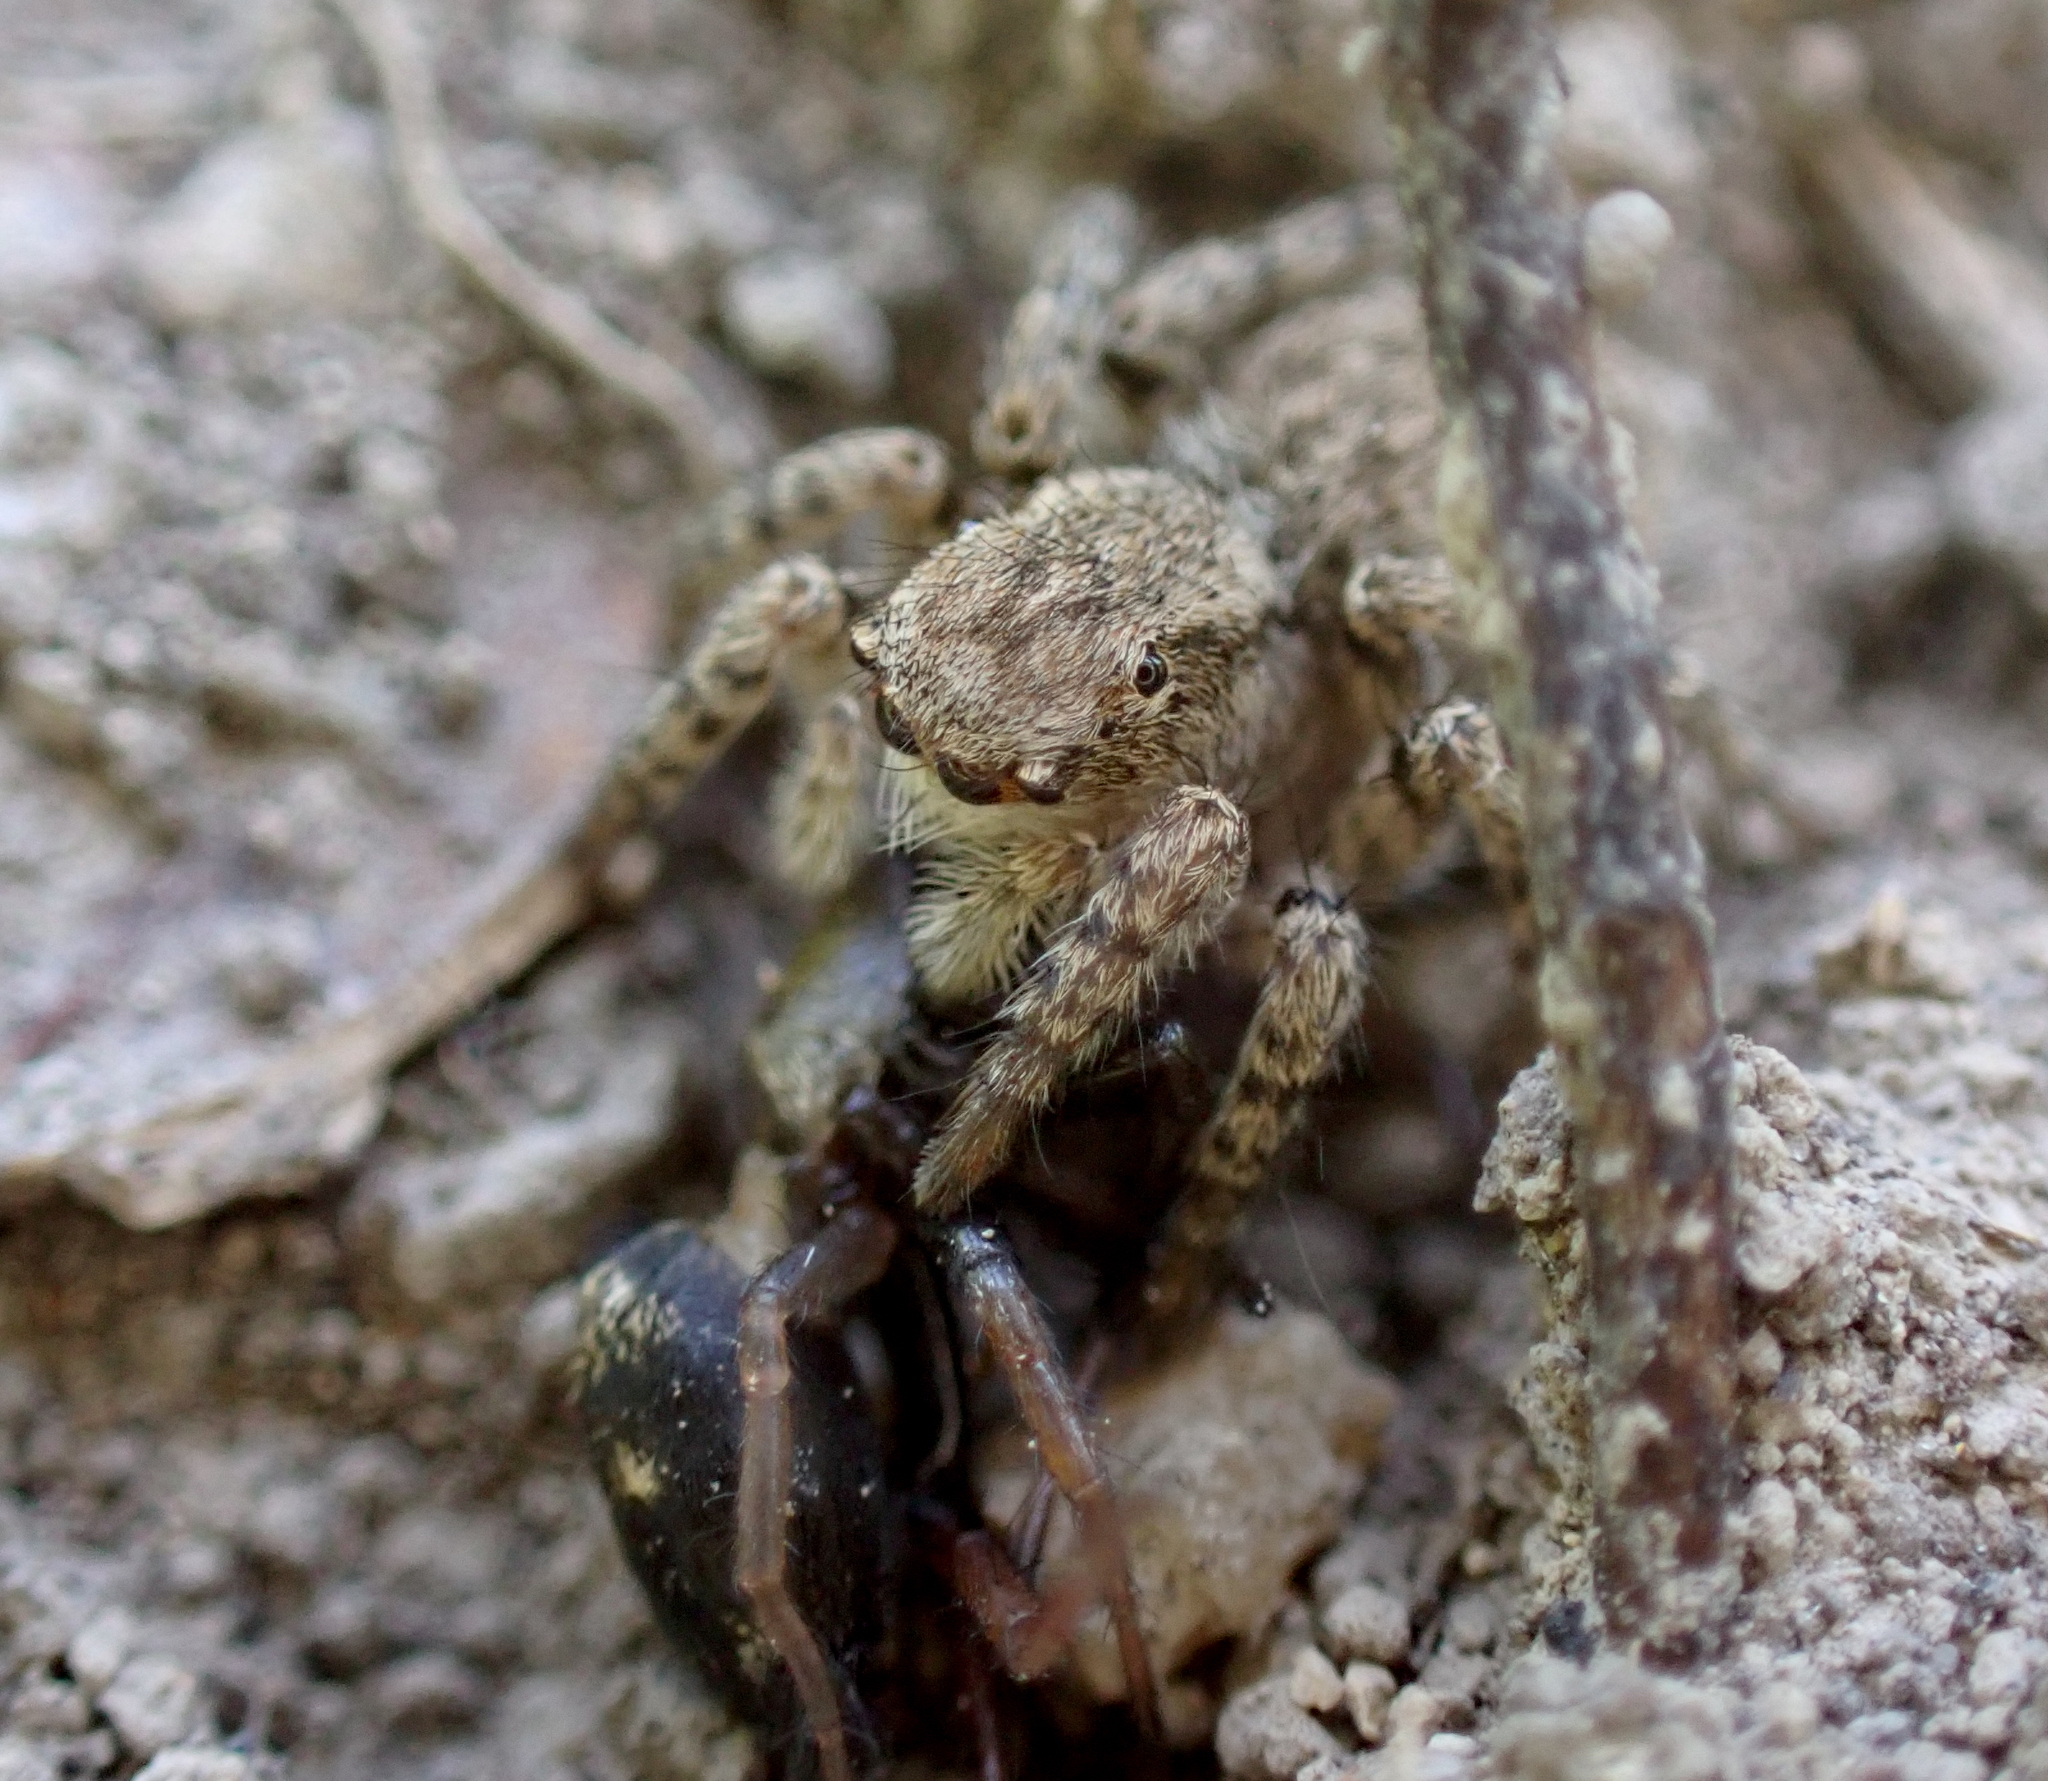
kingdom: Animalia
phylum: Arthropoda
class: Arachnida
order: Araneae
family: Salticidae
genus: Asianellus
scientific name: Asianellus festivus
